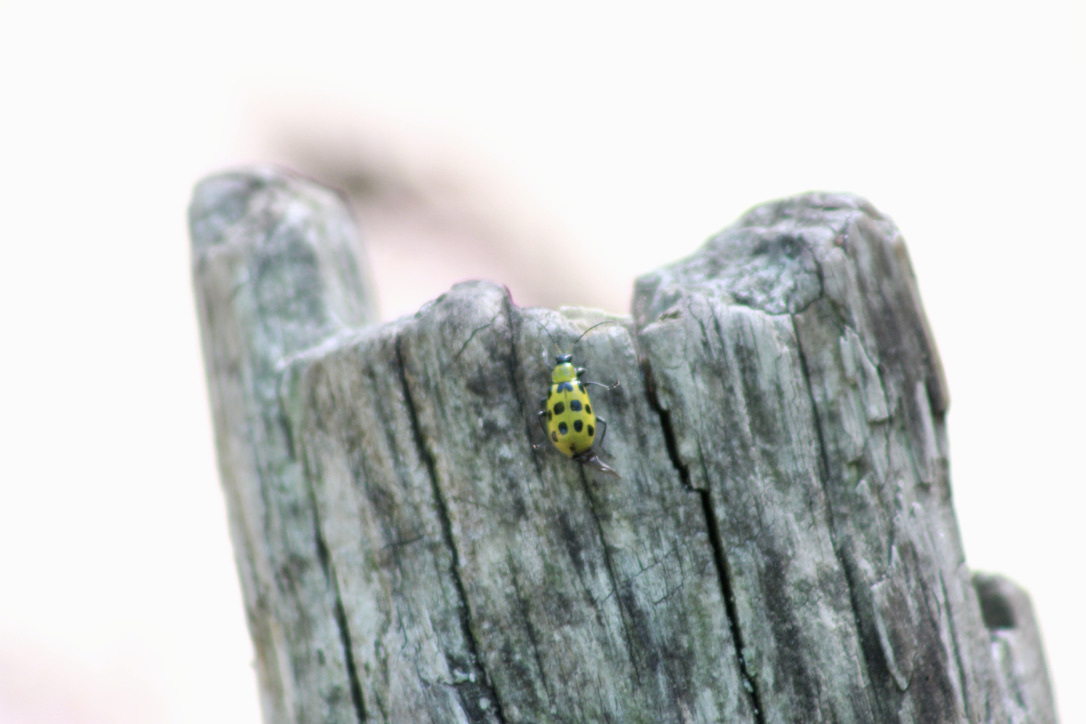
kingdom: Animalia
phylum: Arthropoda
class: Insecta
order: Coleoptera
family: Chrysomelidae
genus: Diabrotica
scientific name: Diabrotica undecimpunctata
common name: Spotted cucumber beetle
